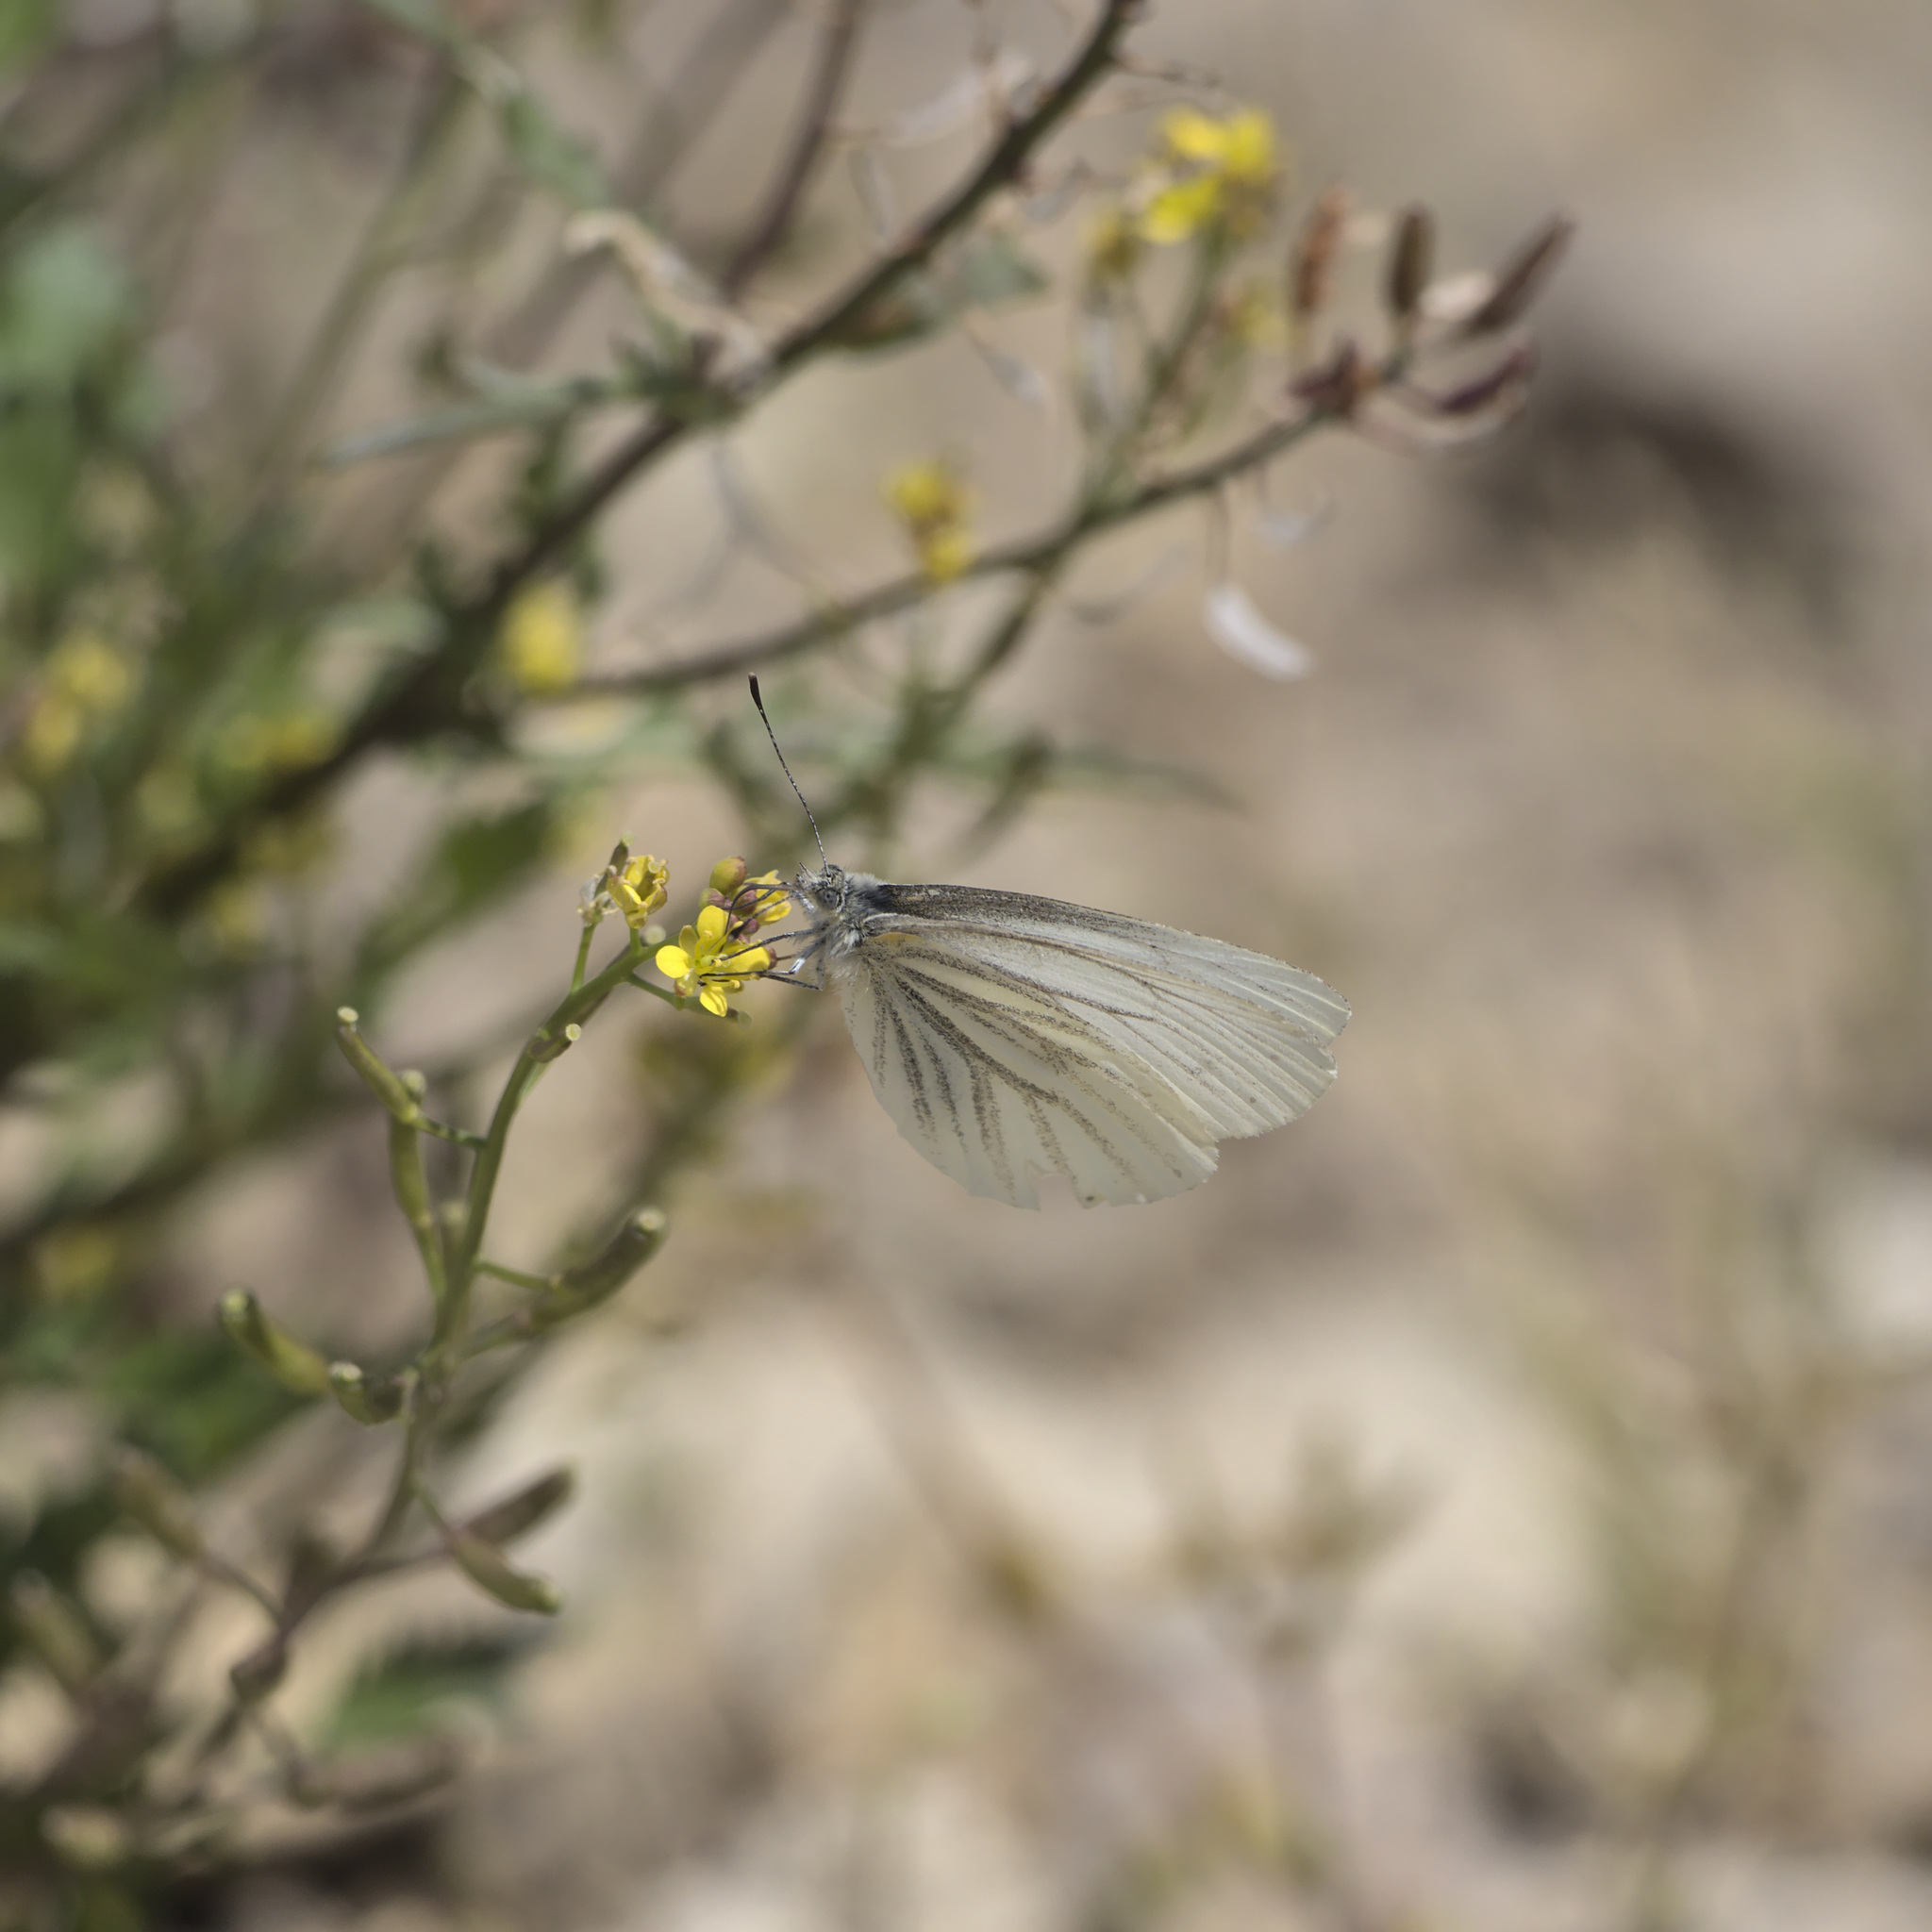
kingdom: Animalia
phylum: Arthropoda
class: Insecta
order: Lepidoptera
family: Pieridae
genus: Pieris
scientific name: Pieris marginalis
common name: Margined white
